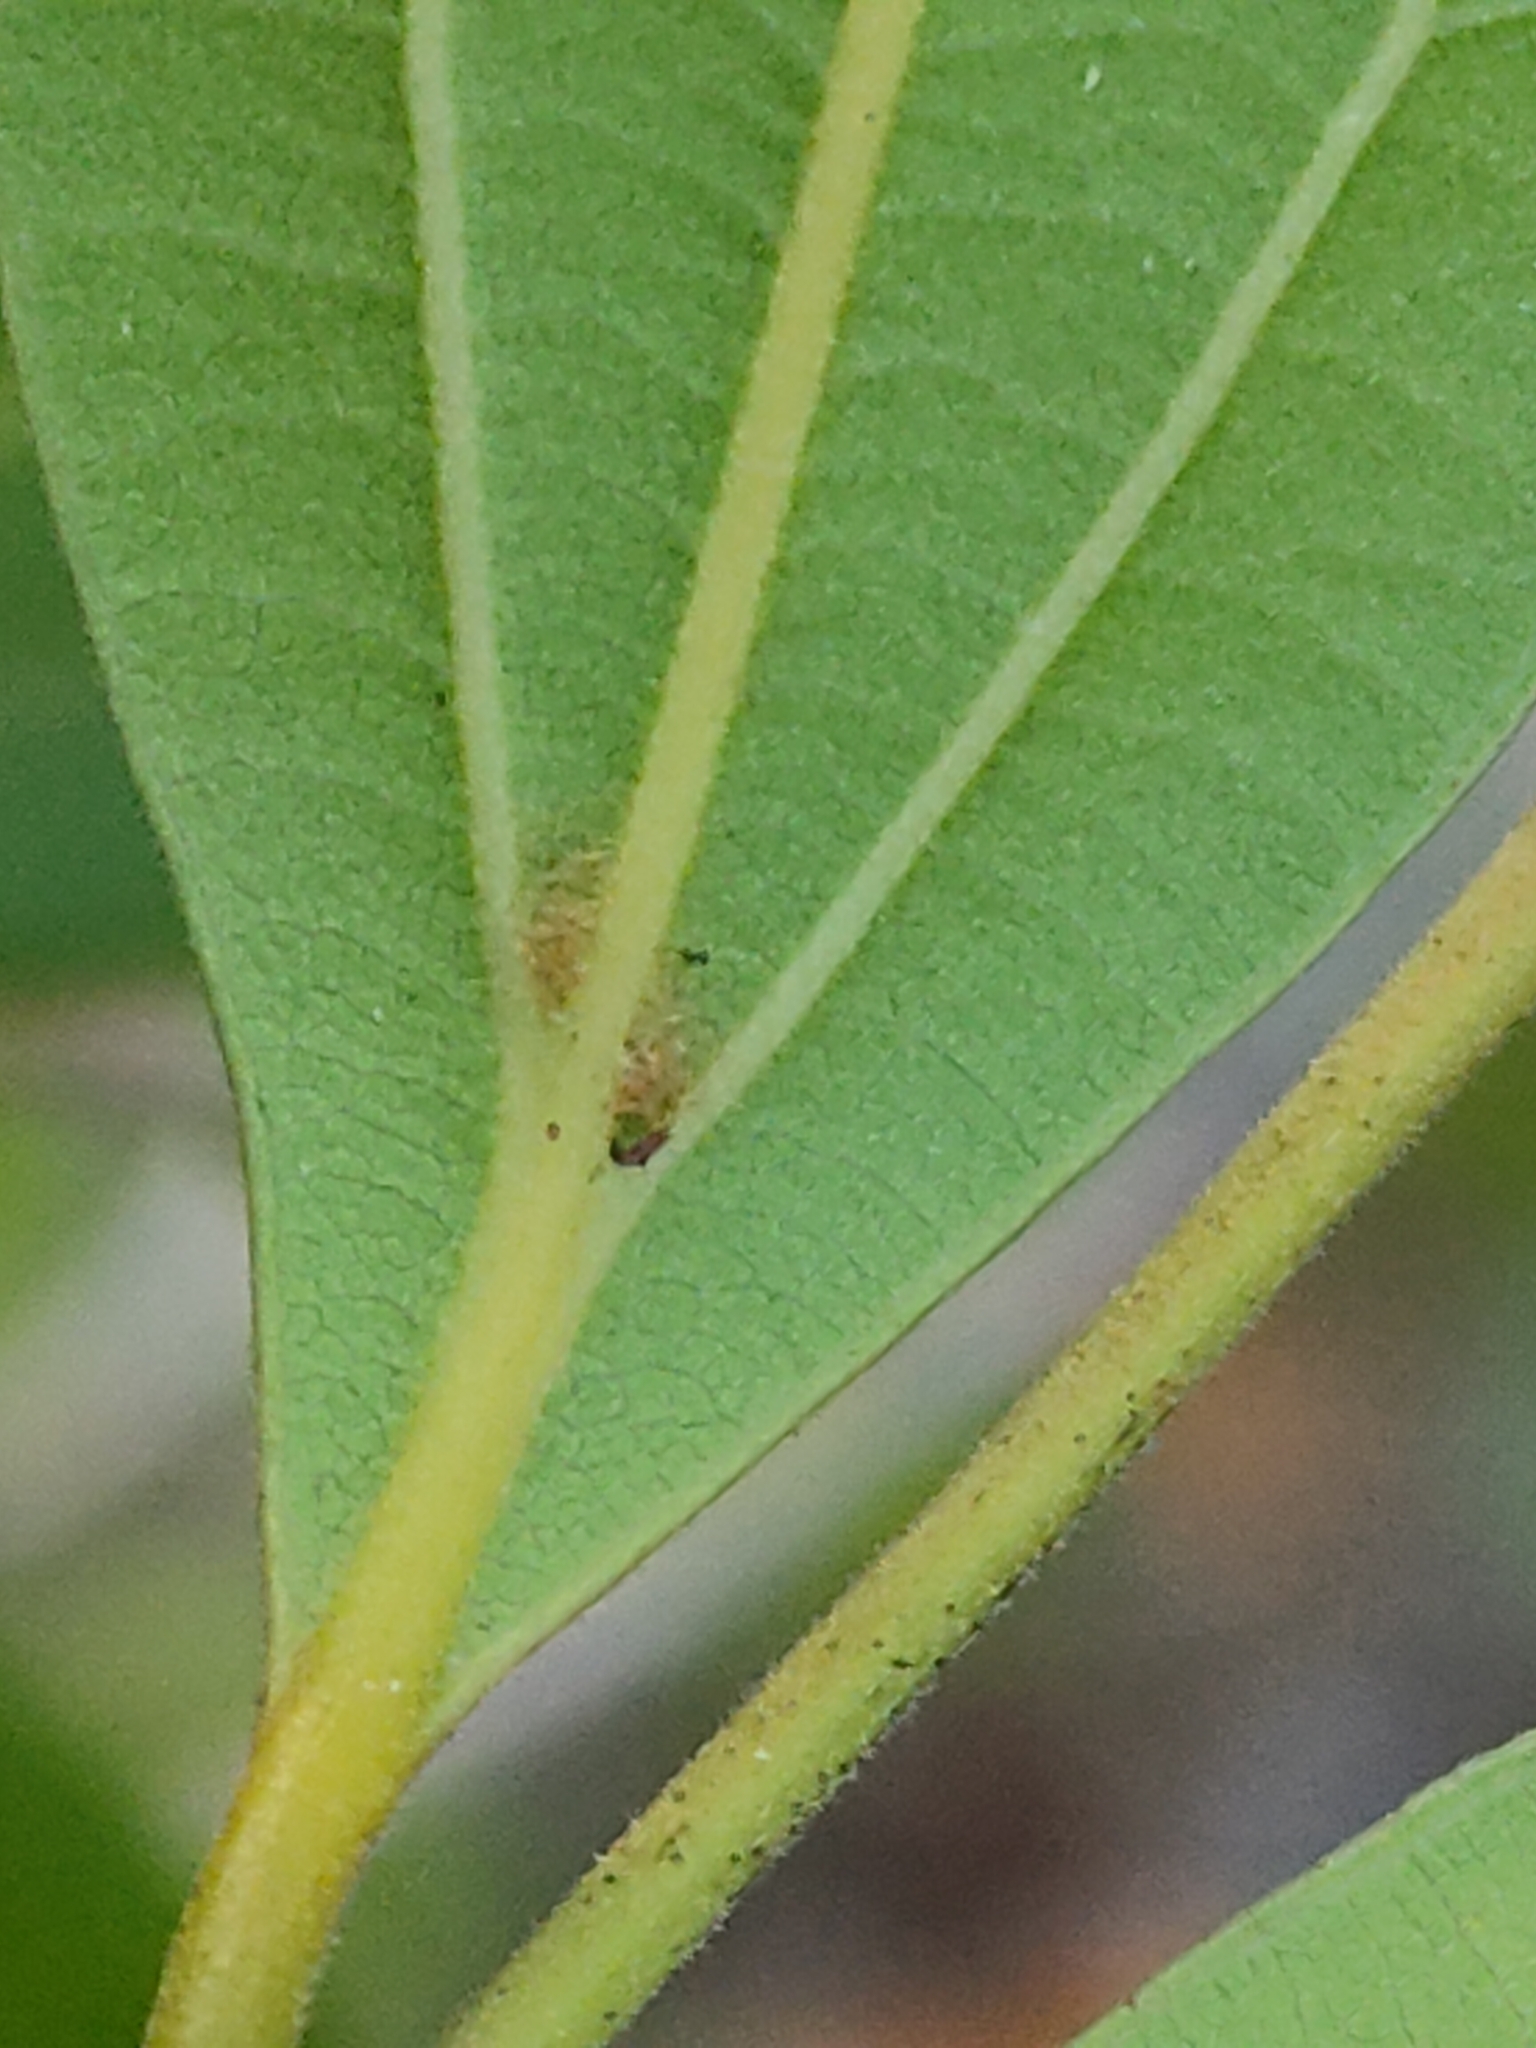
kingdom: Plantae
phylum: Tracheophyta
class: Magnoliopsida
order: Laurales
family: Lauraceae
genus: Cryptocarya
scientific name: Cryptocarya triplinervis
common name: Three-vein cryptocarya
